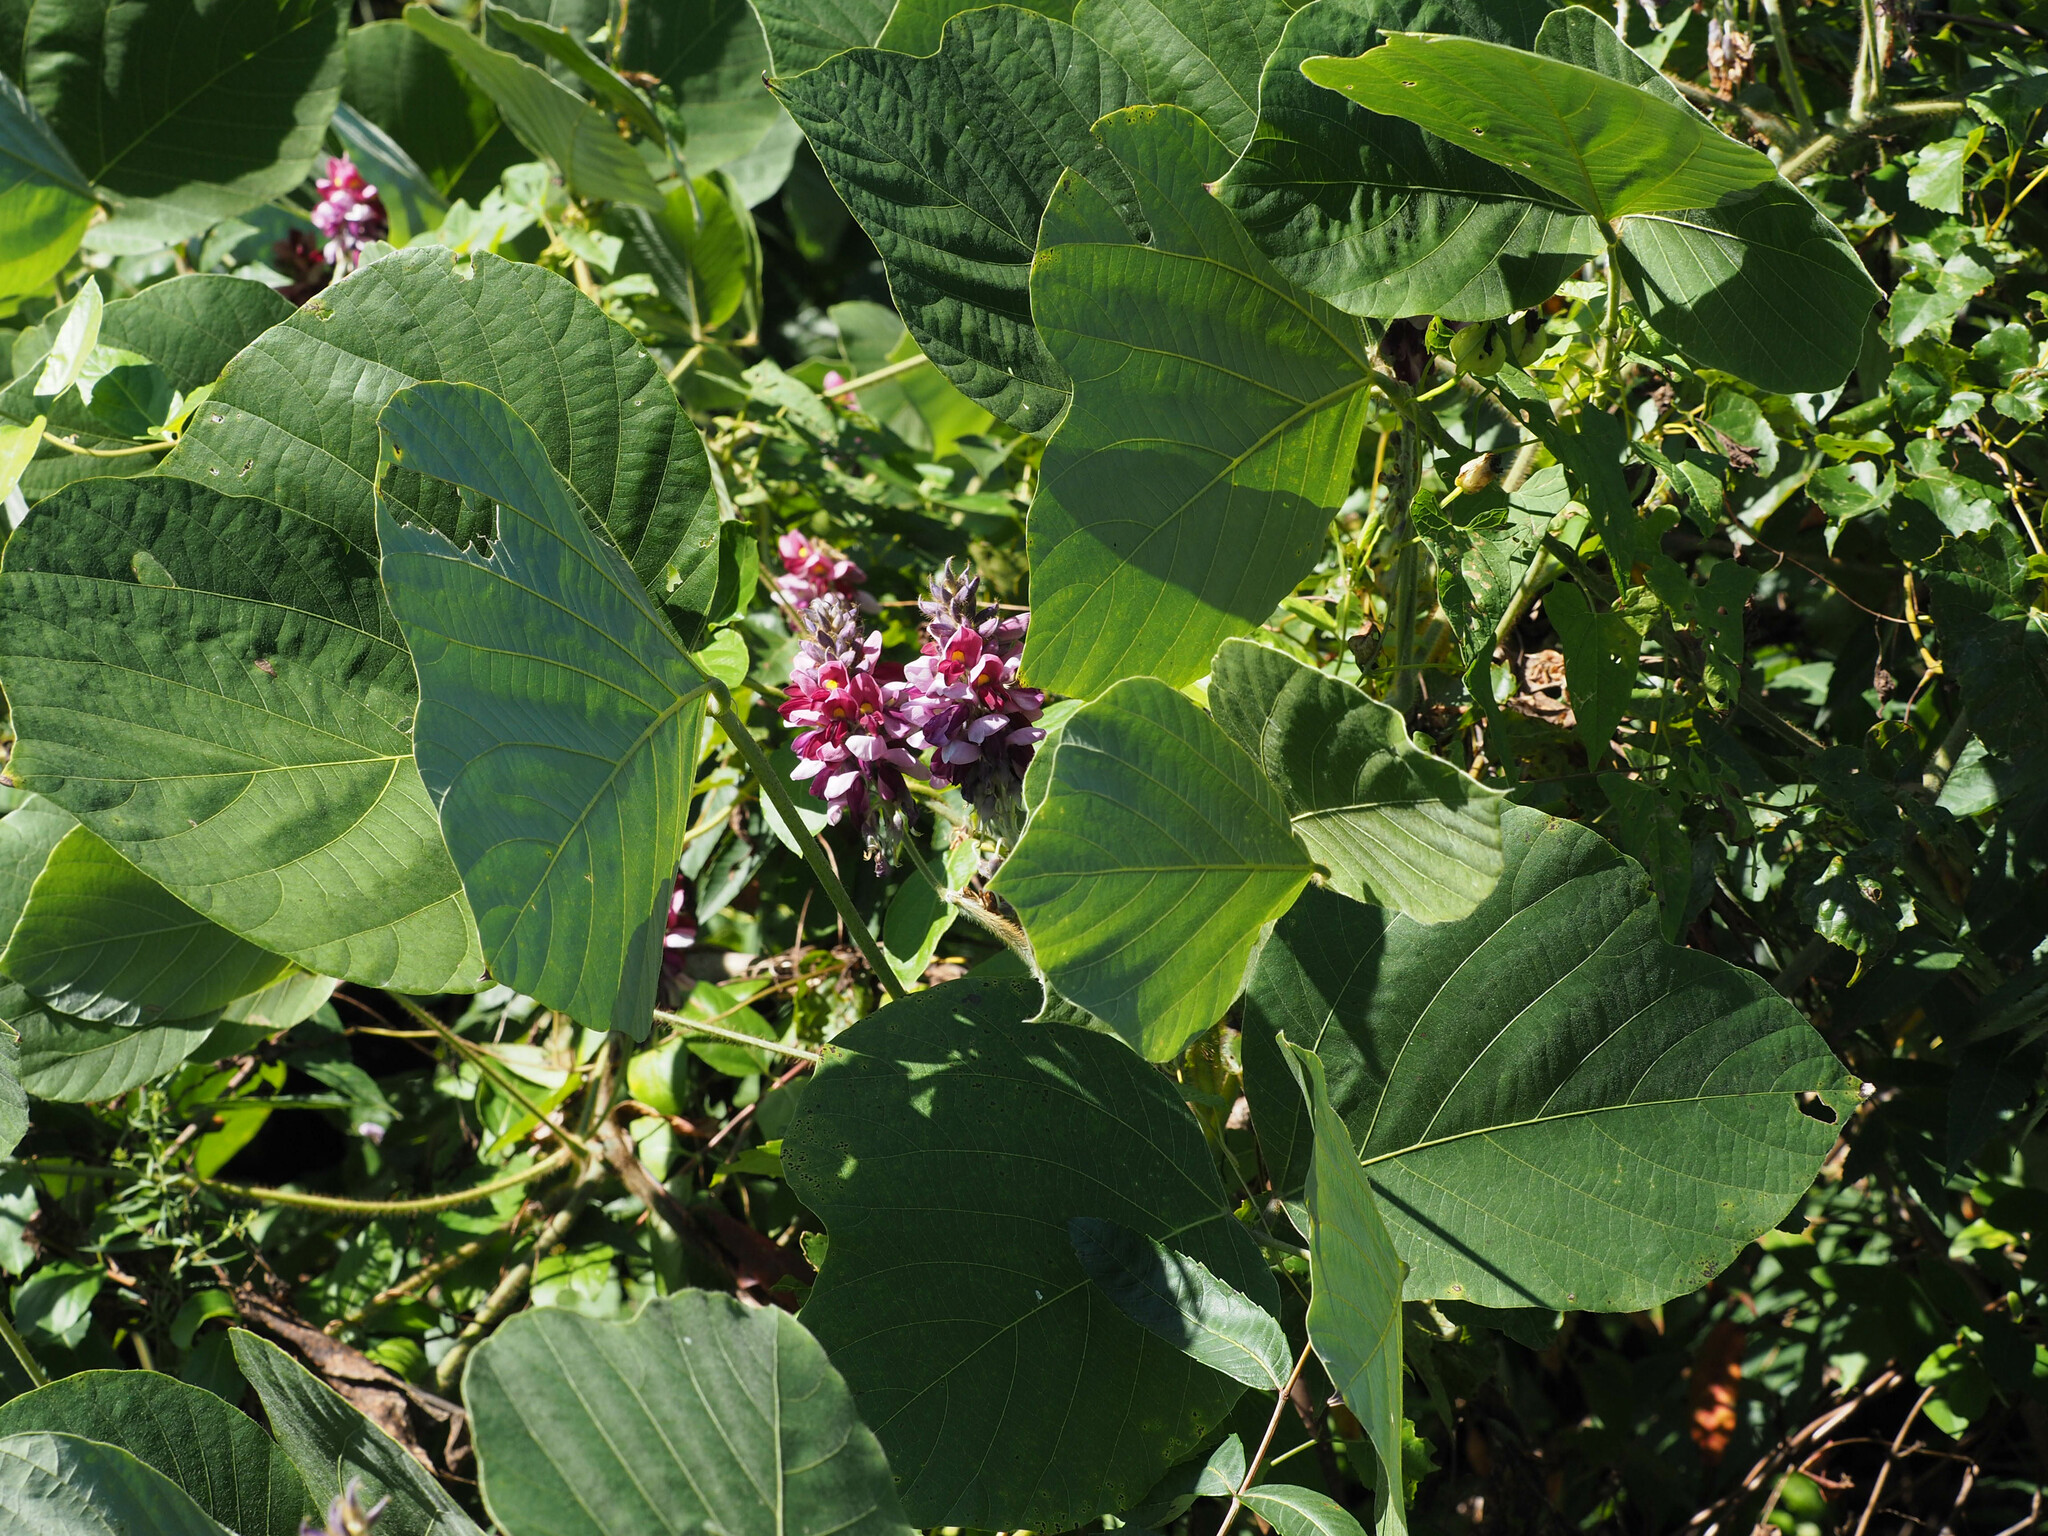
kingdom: Plantae
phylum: Tracheophyta
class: Magnoliopsida
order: Fabales
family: Fabaceae
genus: Pueraria
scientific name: Pueraria montana
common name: Kudzu
